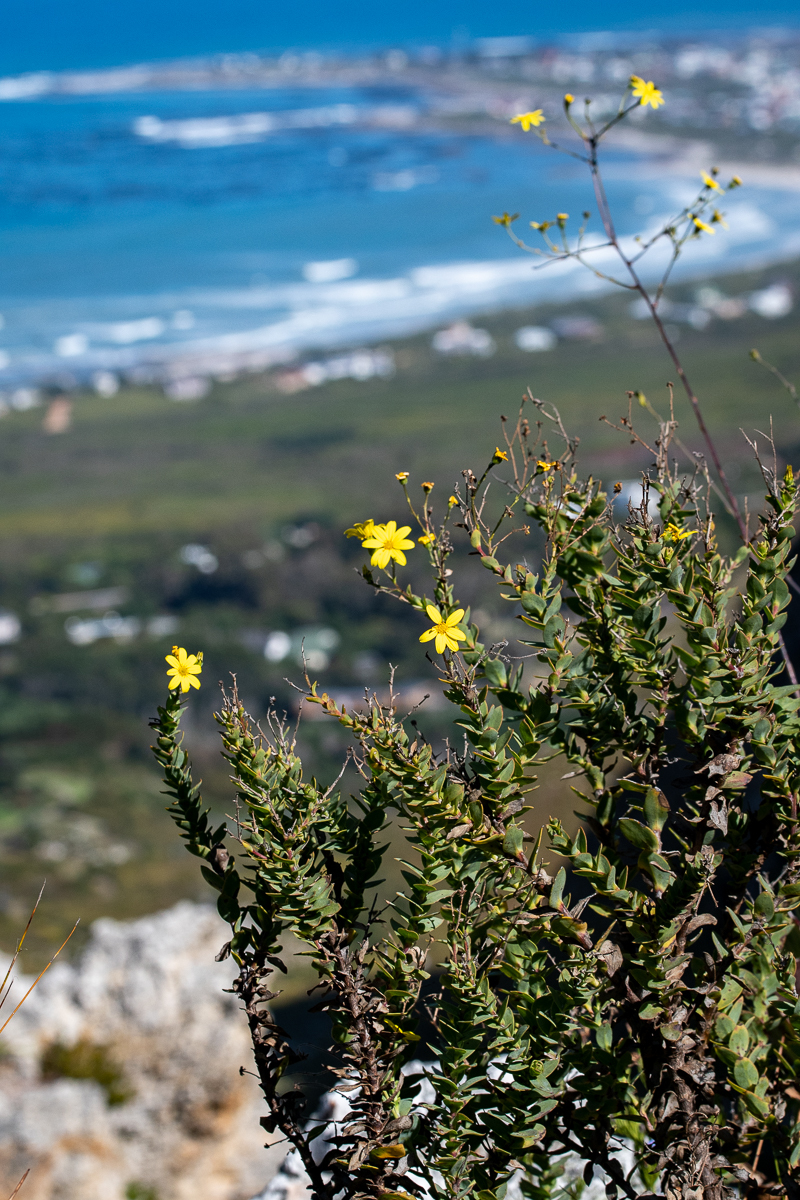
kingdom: Plantae
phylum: Tracheophyta
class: Magnoliopsida
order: Asterales
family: Asteraceae
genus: Osteospermum
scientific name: Osteospermum rotundifolium
